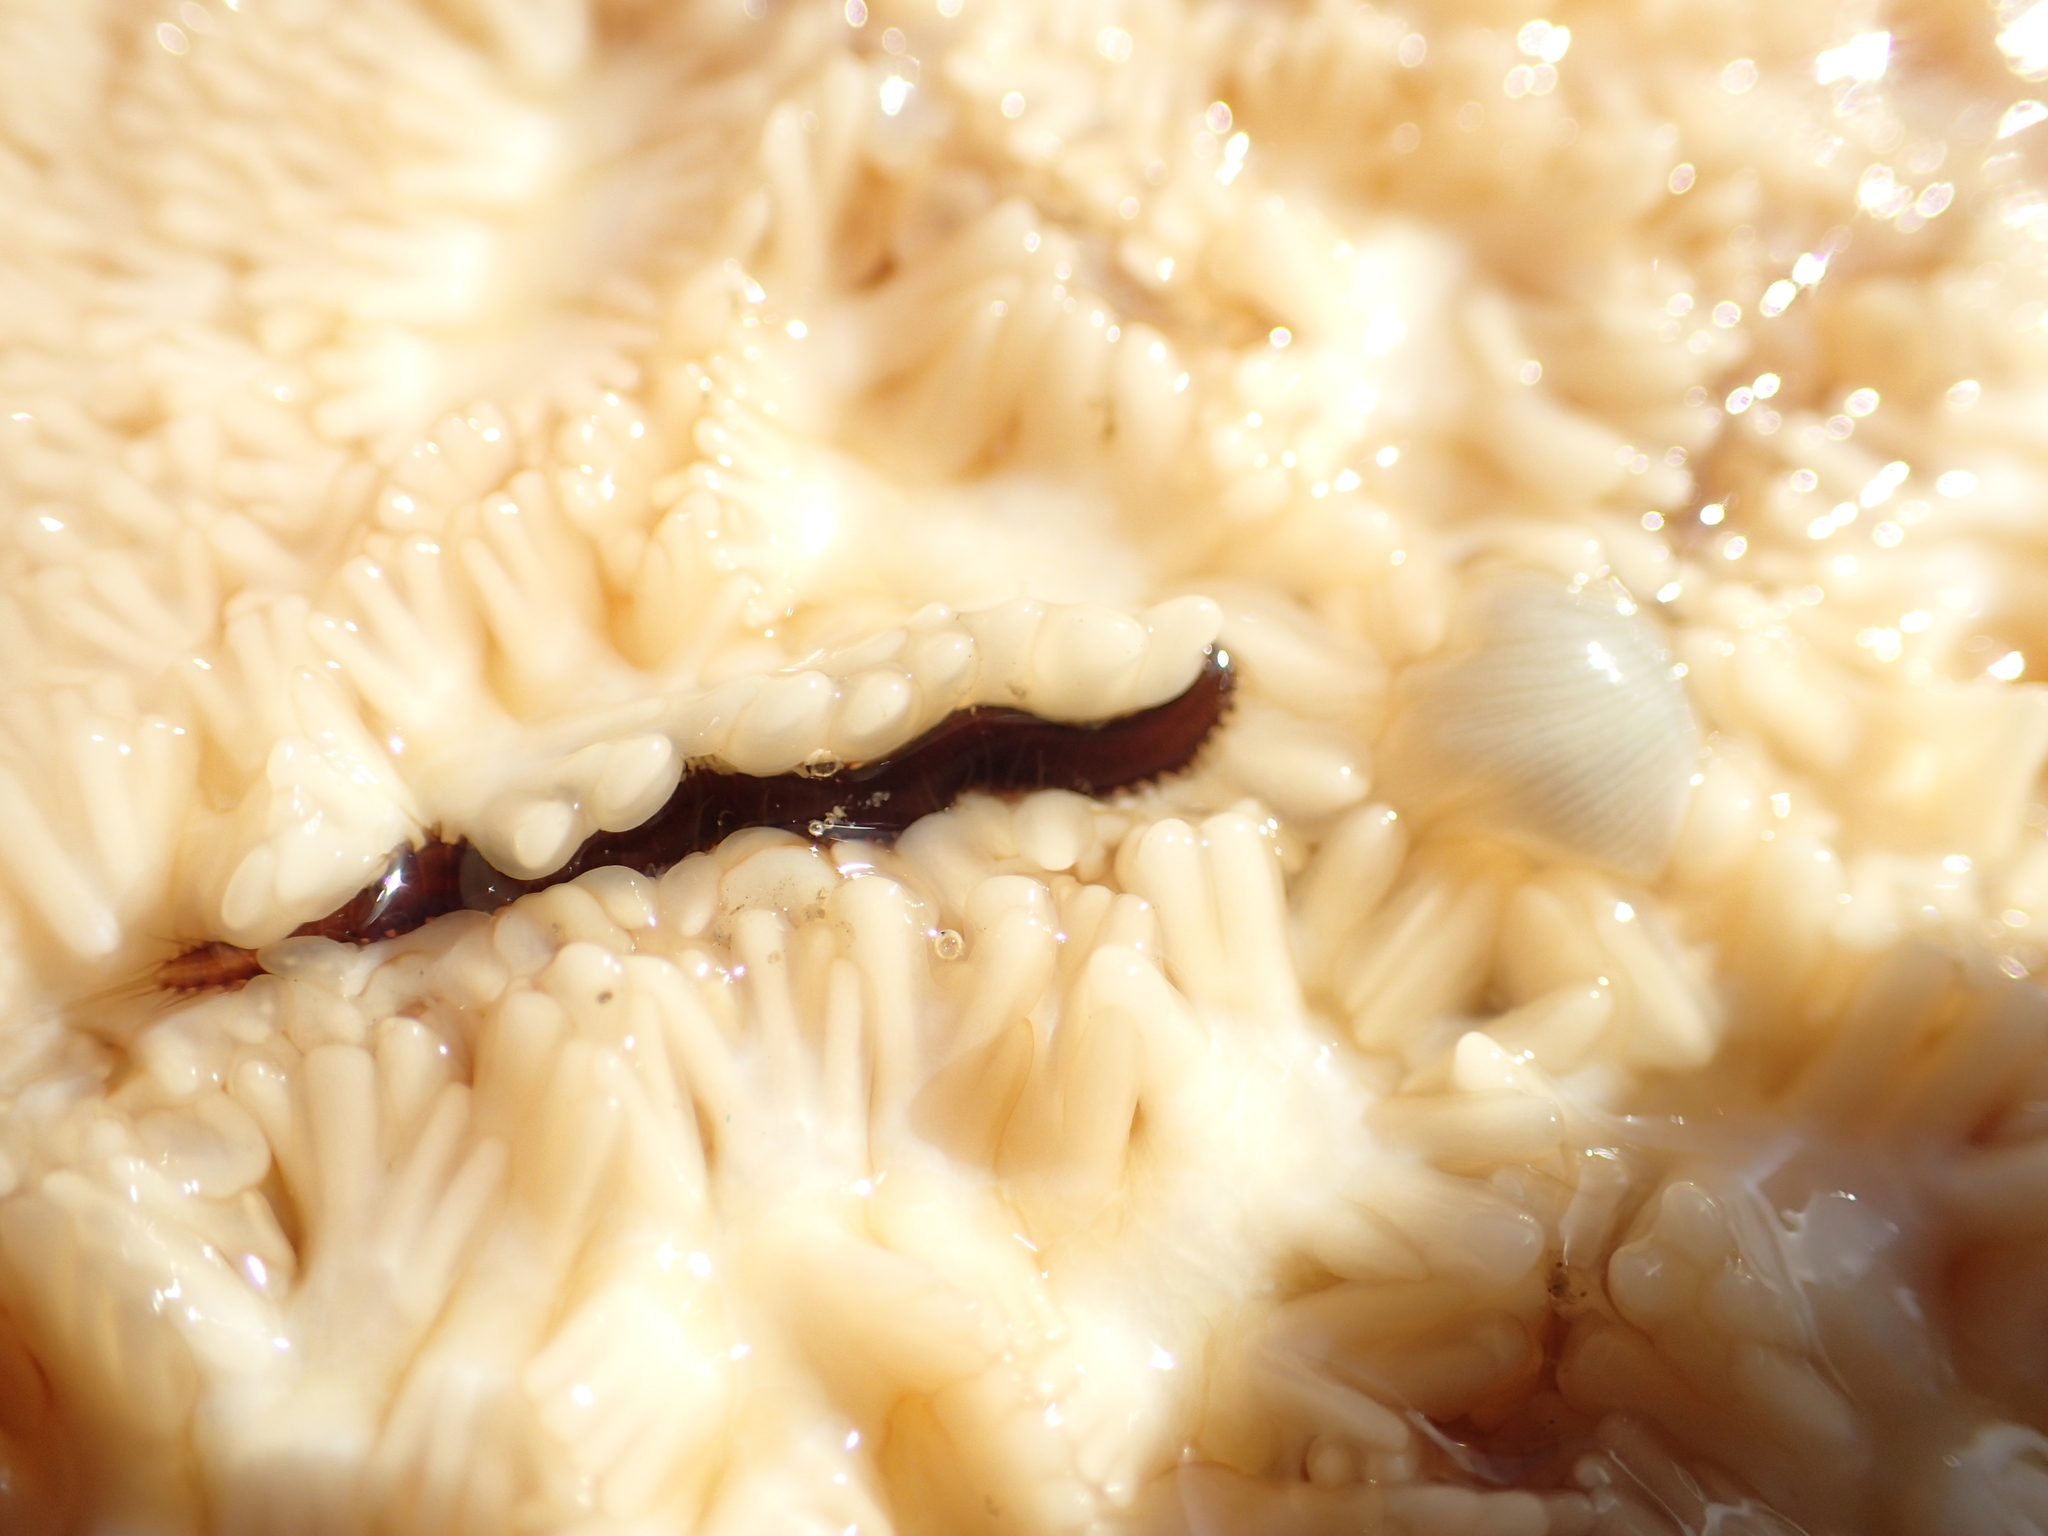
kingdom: Animalia
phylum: Annelida
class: Polychaeta
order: Phyllodocida
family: Hesionidae
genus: Oxydromus
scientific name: Oxydromus pugettensis
